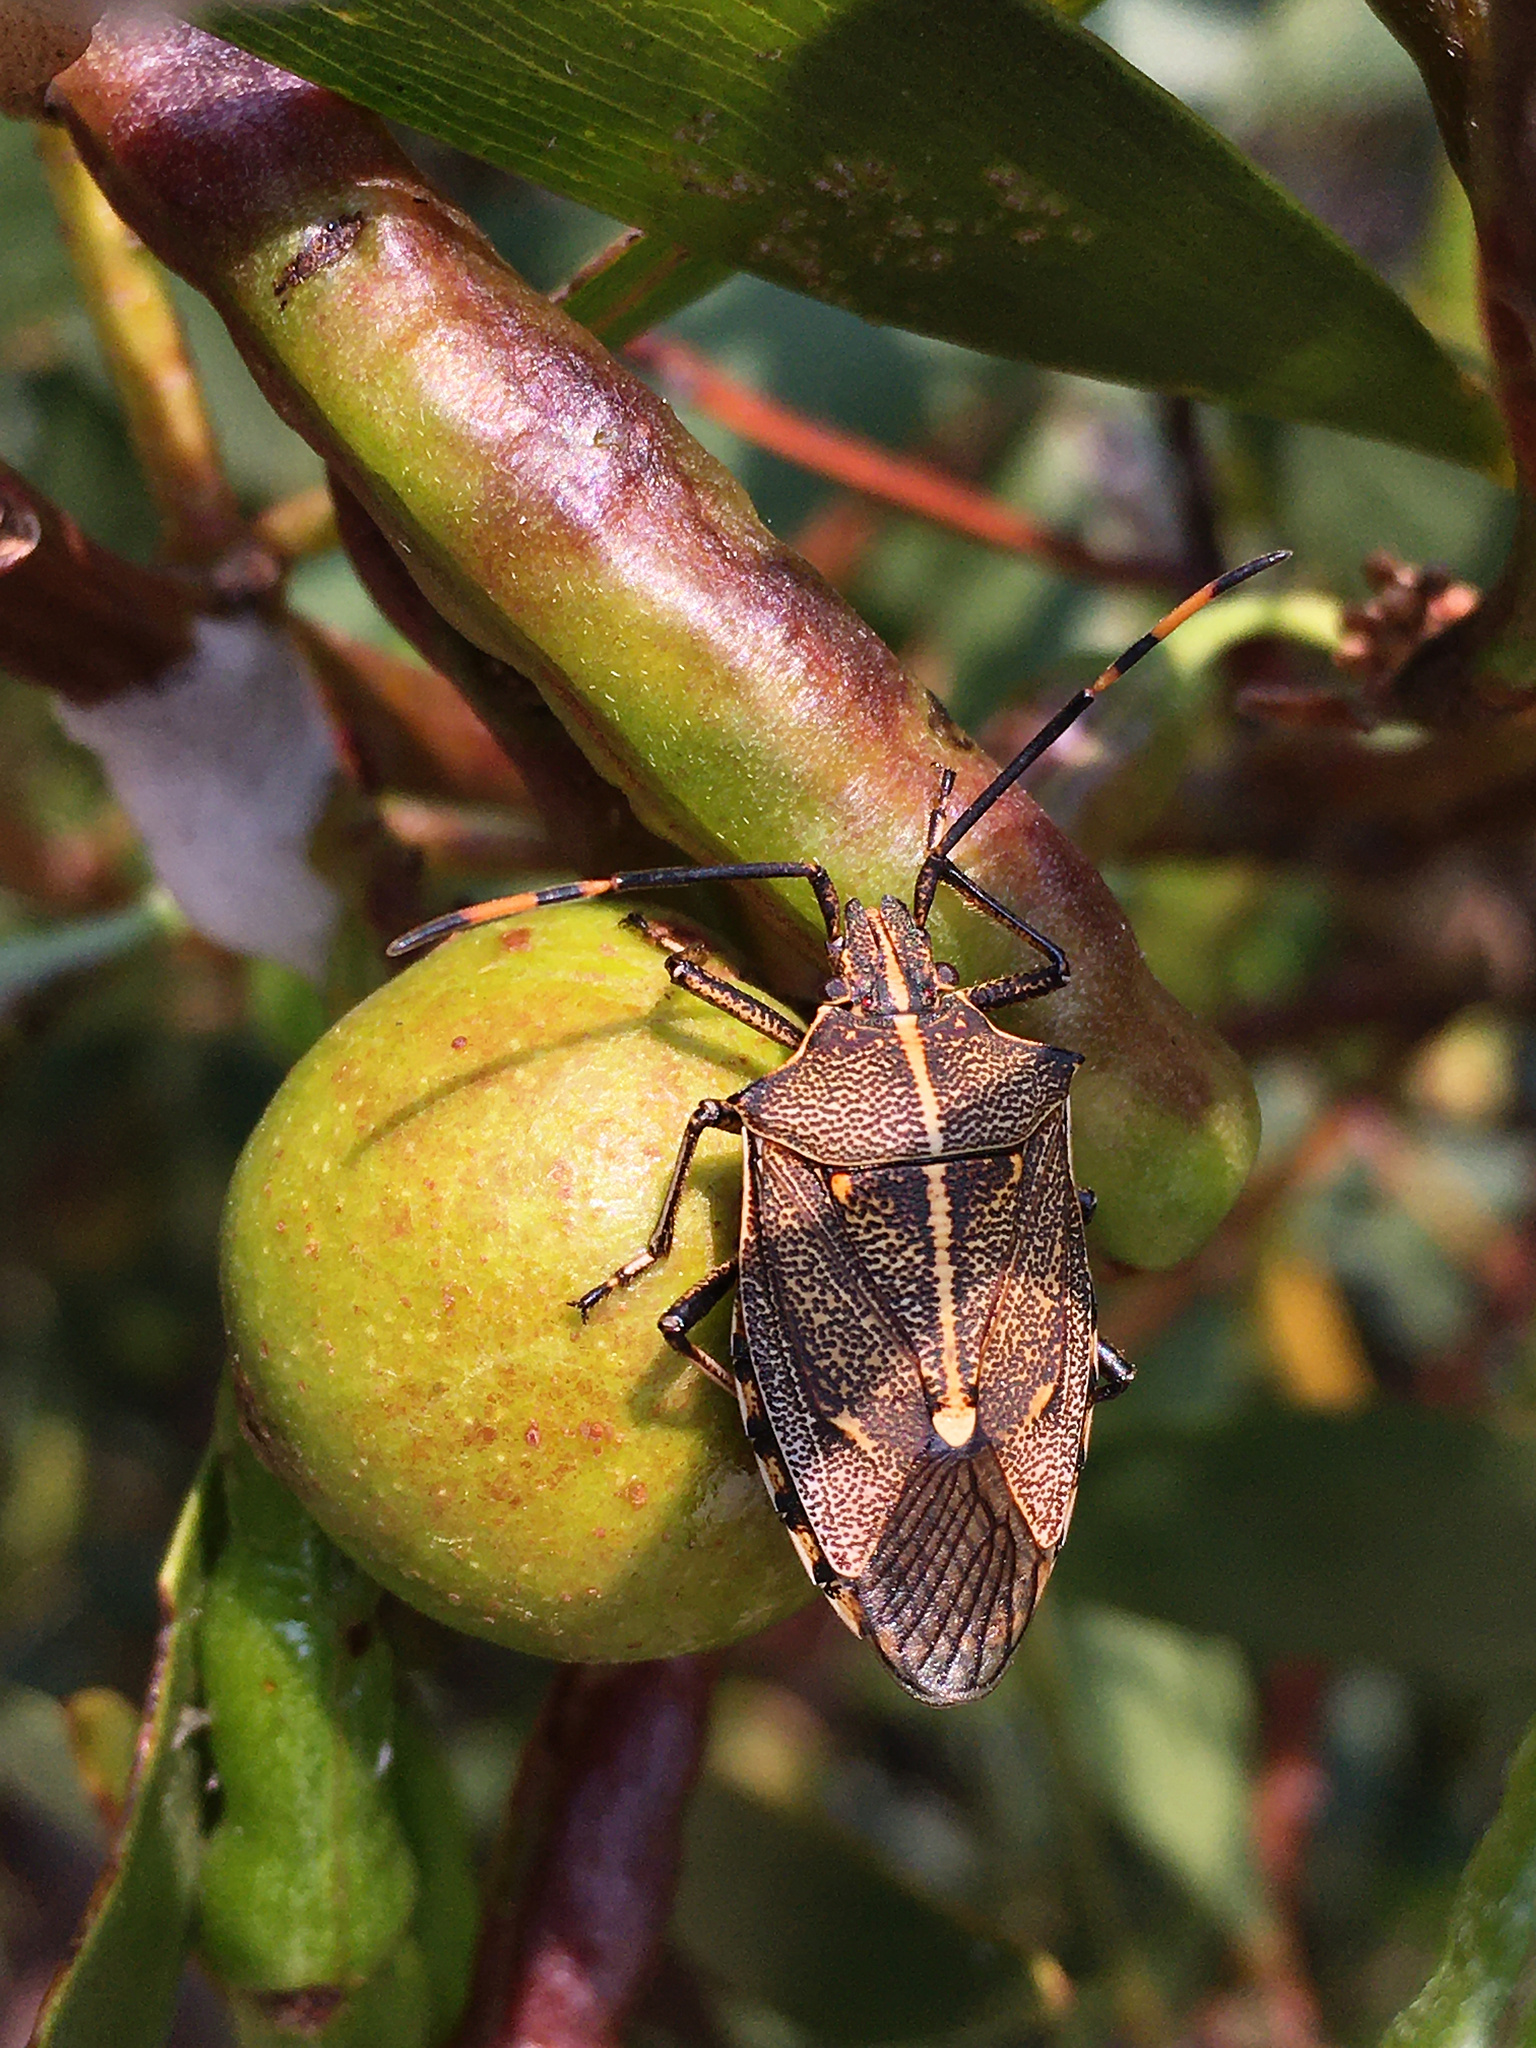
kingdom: Animalia
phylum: Arthropoda
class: Insecta
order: Hemiptera
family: Pentatomidae
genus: Omyta
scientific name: Omyta centrolineata
